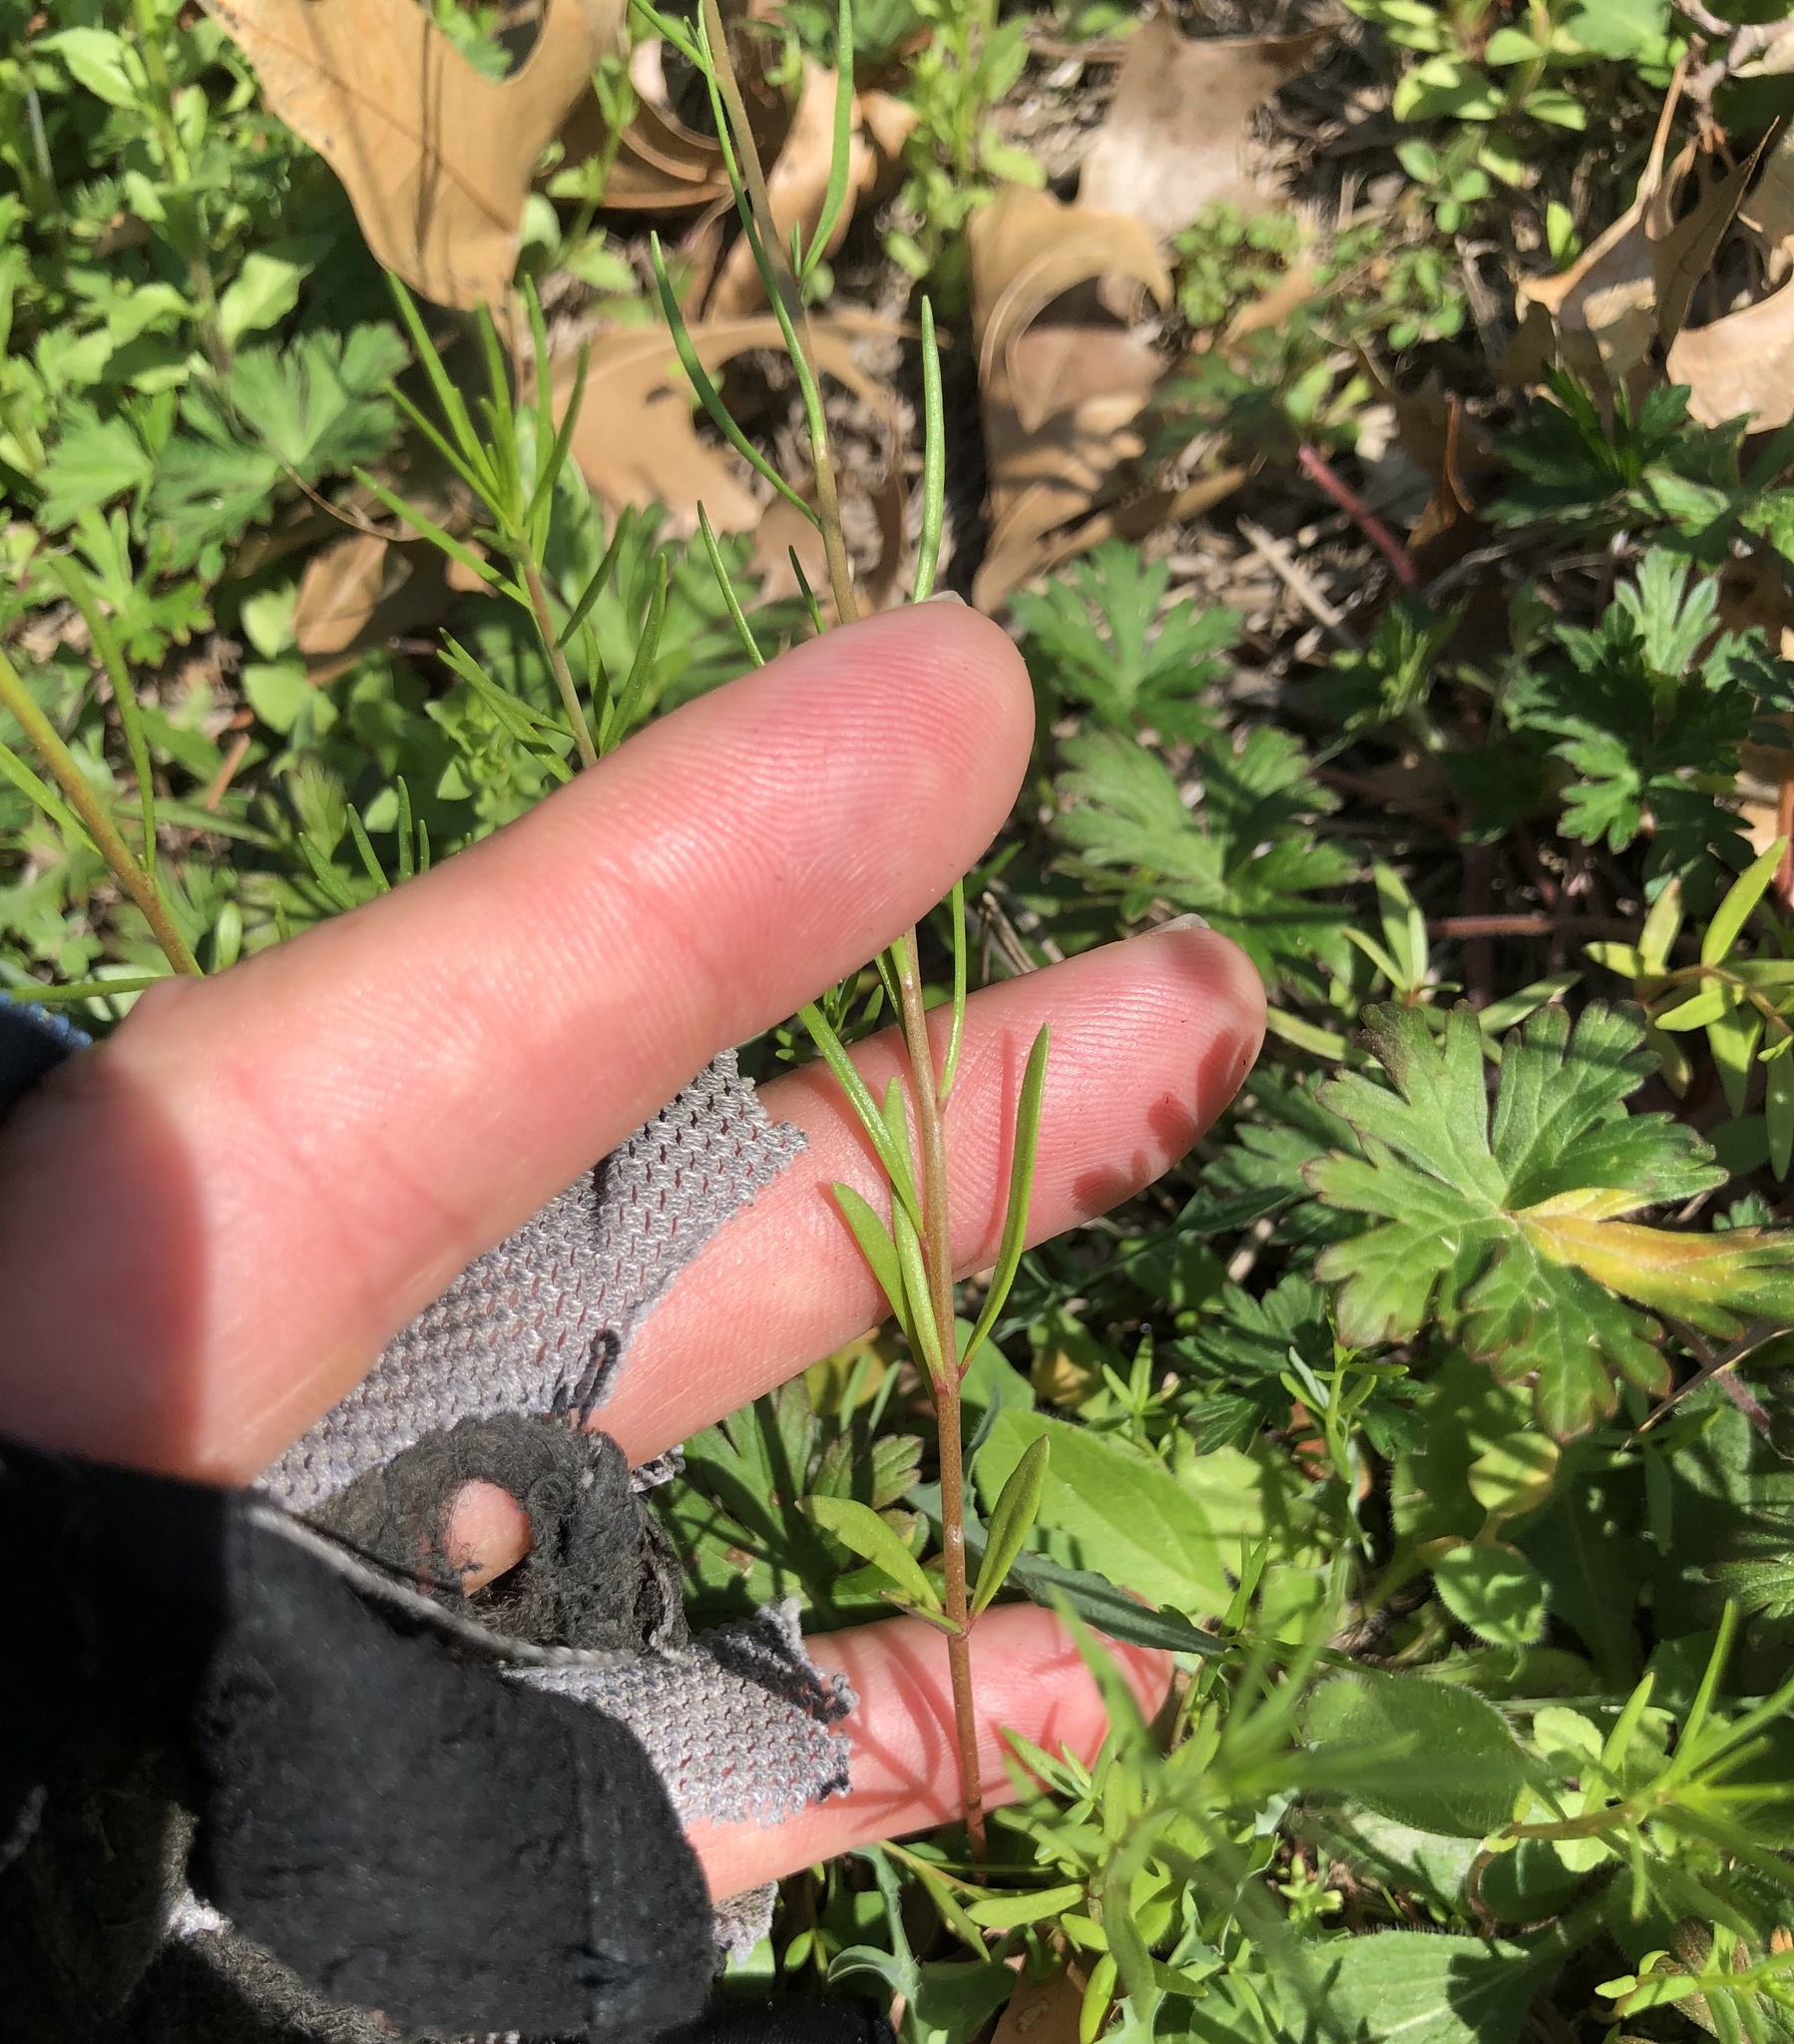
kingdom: Plantae
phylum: Tracheophyta
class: Magnoliopsida
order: Lamiales
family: Plantaginaceae
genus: Linaria
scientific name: Linaria maroccana
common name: Moroccan toadflax
